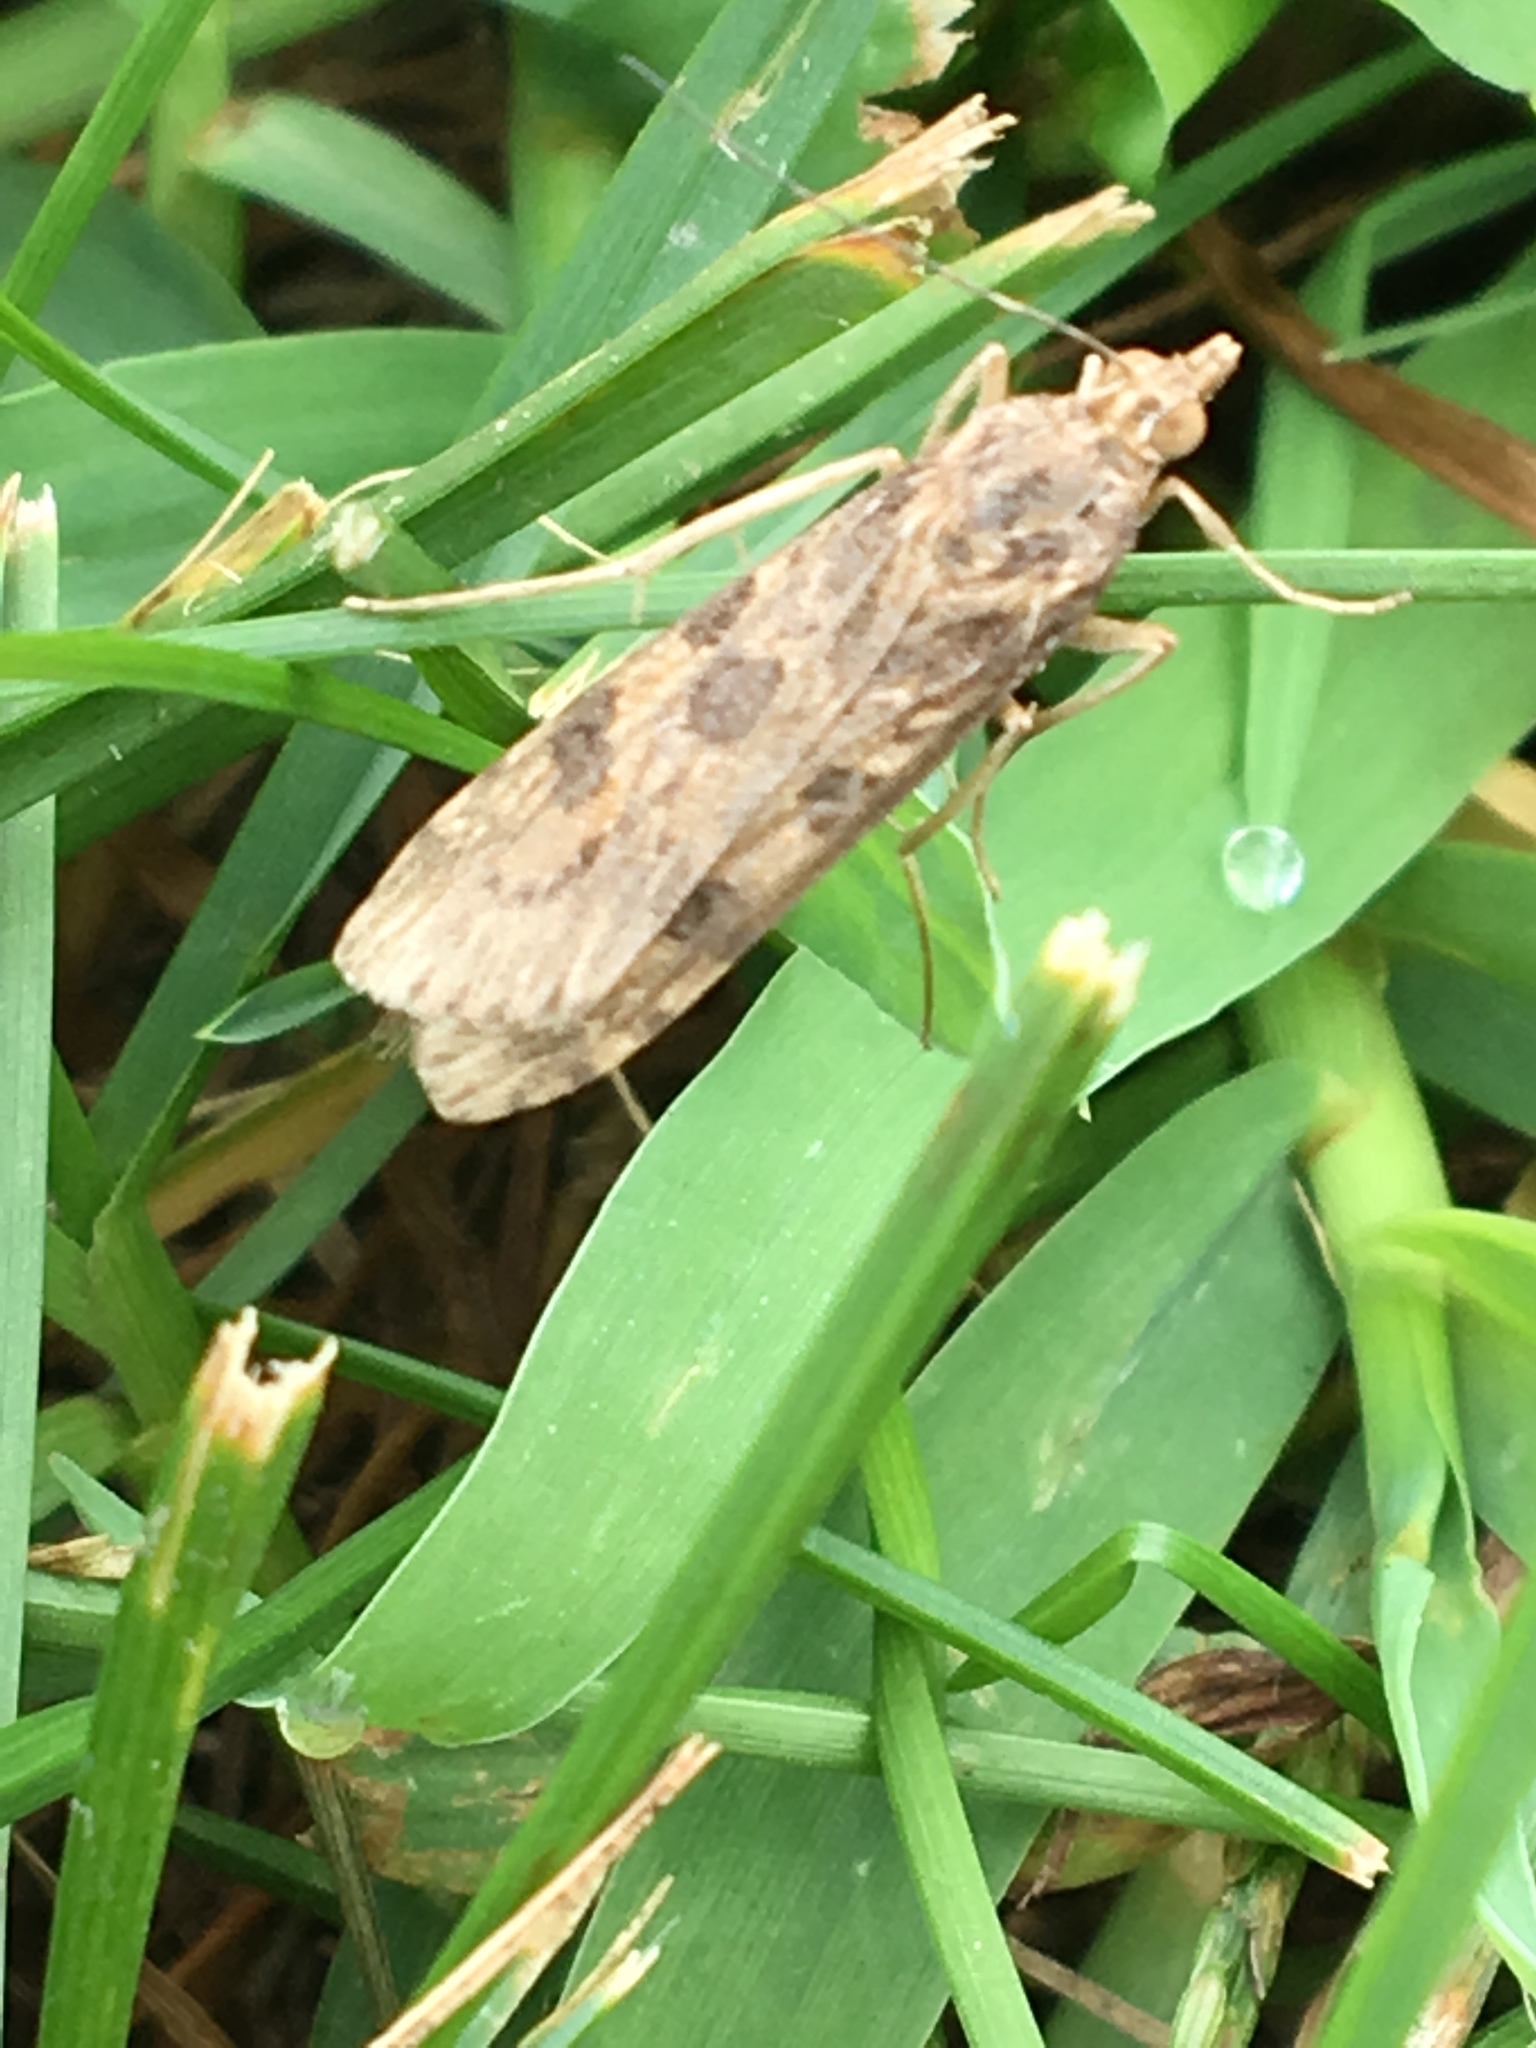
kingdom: Animalia
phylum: Arthropoda
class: Insecta
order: Lepidoptera
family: Crambidae
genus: Nomophila
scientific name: Nomophila nearctica
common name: American rush veneer
